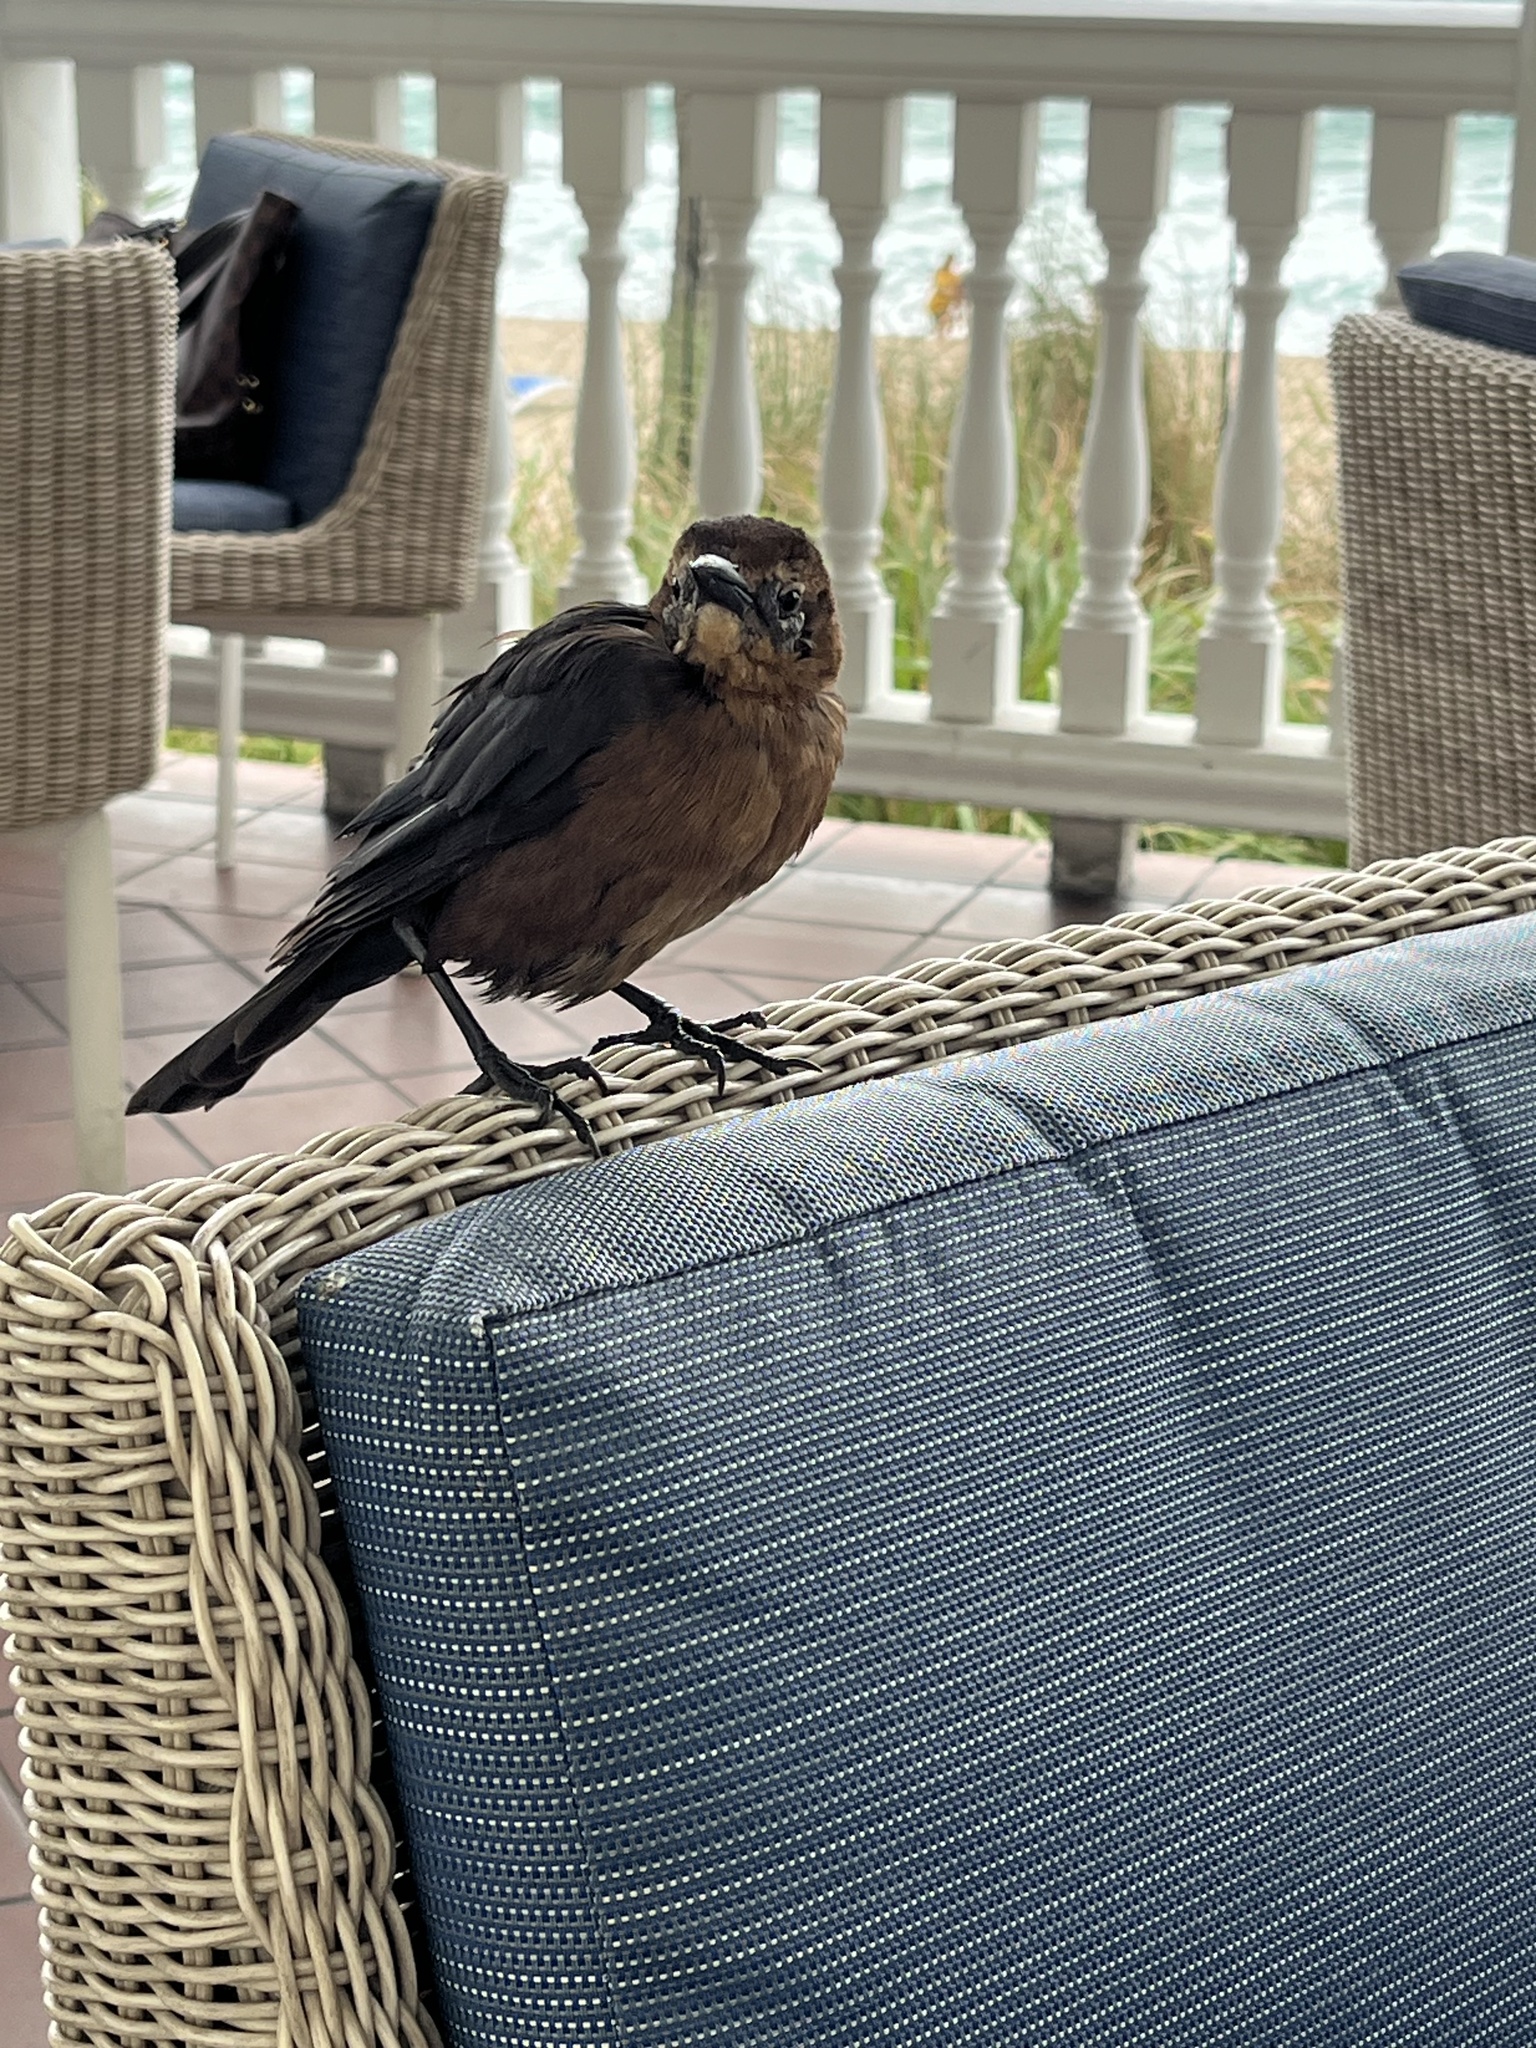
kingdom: Animalia
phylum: Chordata
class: Aves
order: Passeriformes
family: Icteridae
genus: Quiscalus
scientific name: Quiscalus major
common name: Boat-tailed grackle
